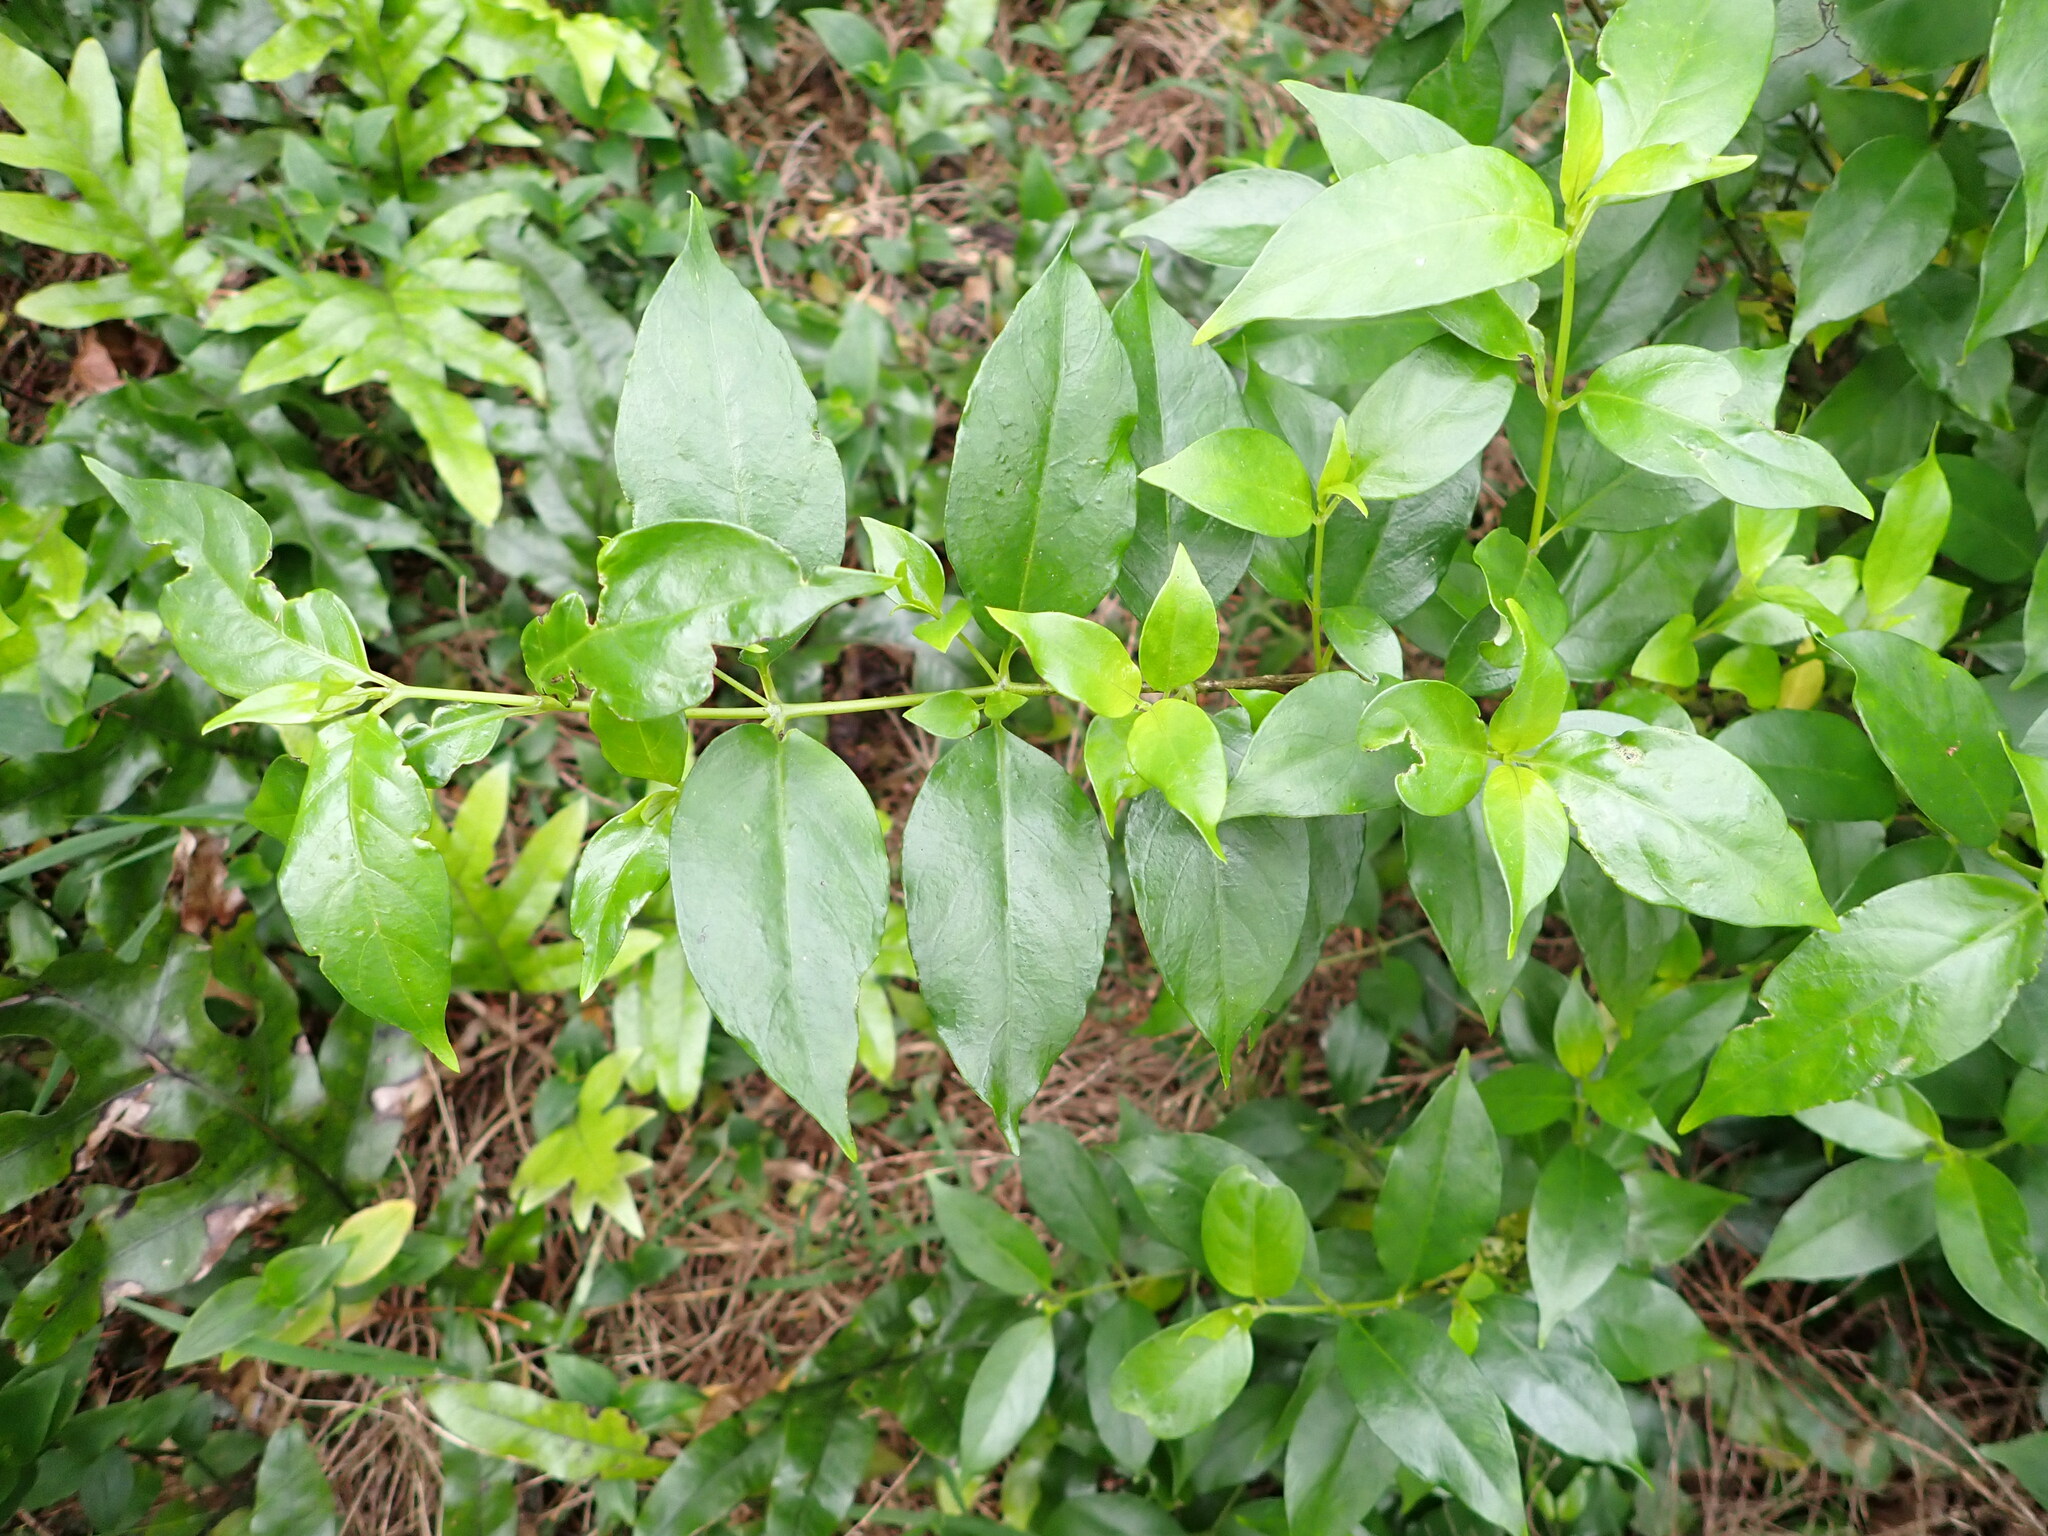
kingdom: Plantae
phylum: Tracheophyta
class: Magnoliopsida
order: Gentianales
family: Loganiaceae
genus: Geniostoma
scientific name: Geniostoma ligustrifolium
